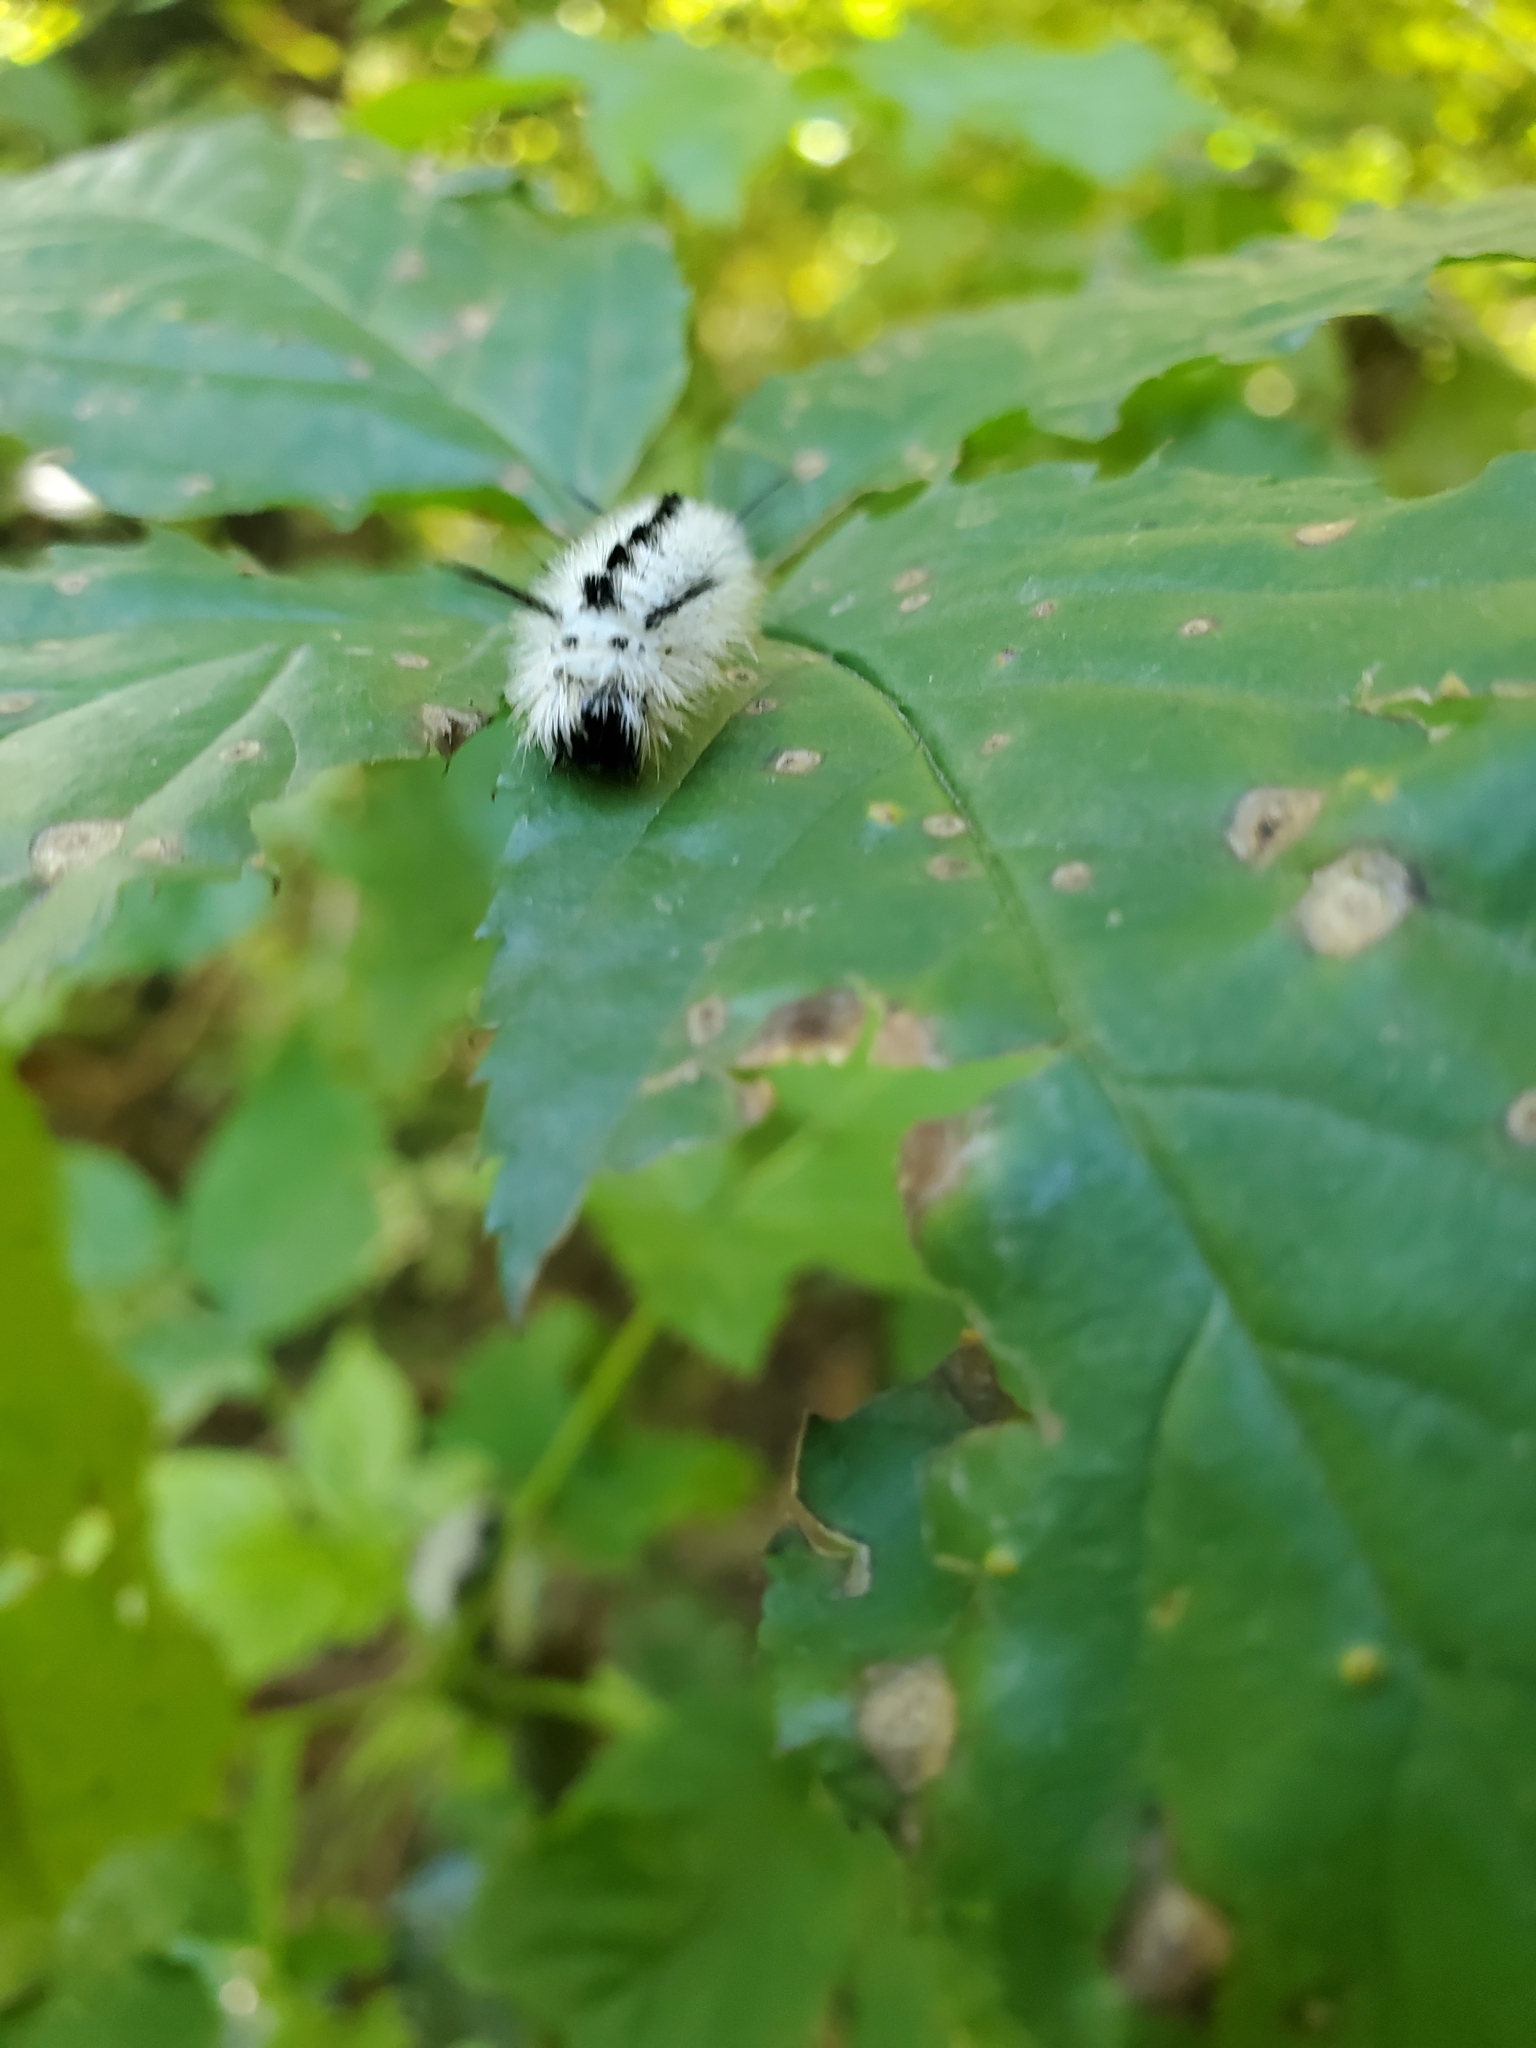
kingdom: Animalia
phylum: Arthropoda
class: Insecta
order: Lepidoptera
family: Erebidae
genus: Lophocampa
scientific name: Lophocampa caryae
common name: Hickory tussock moth
